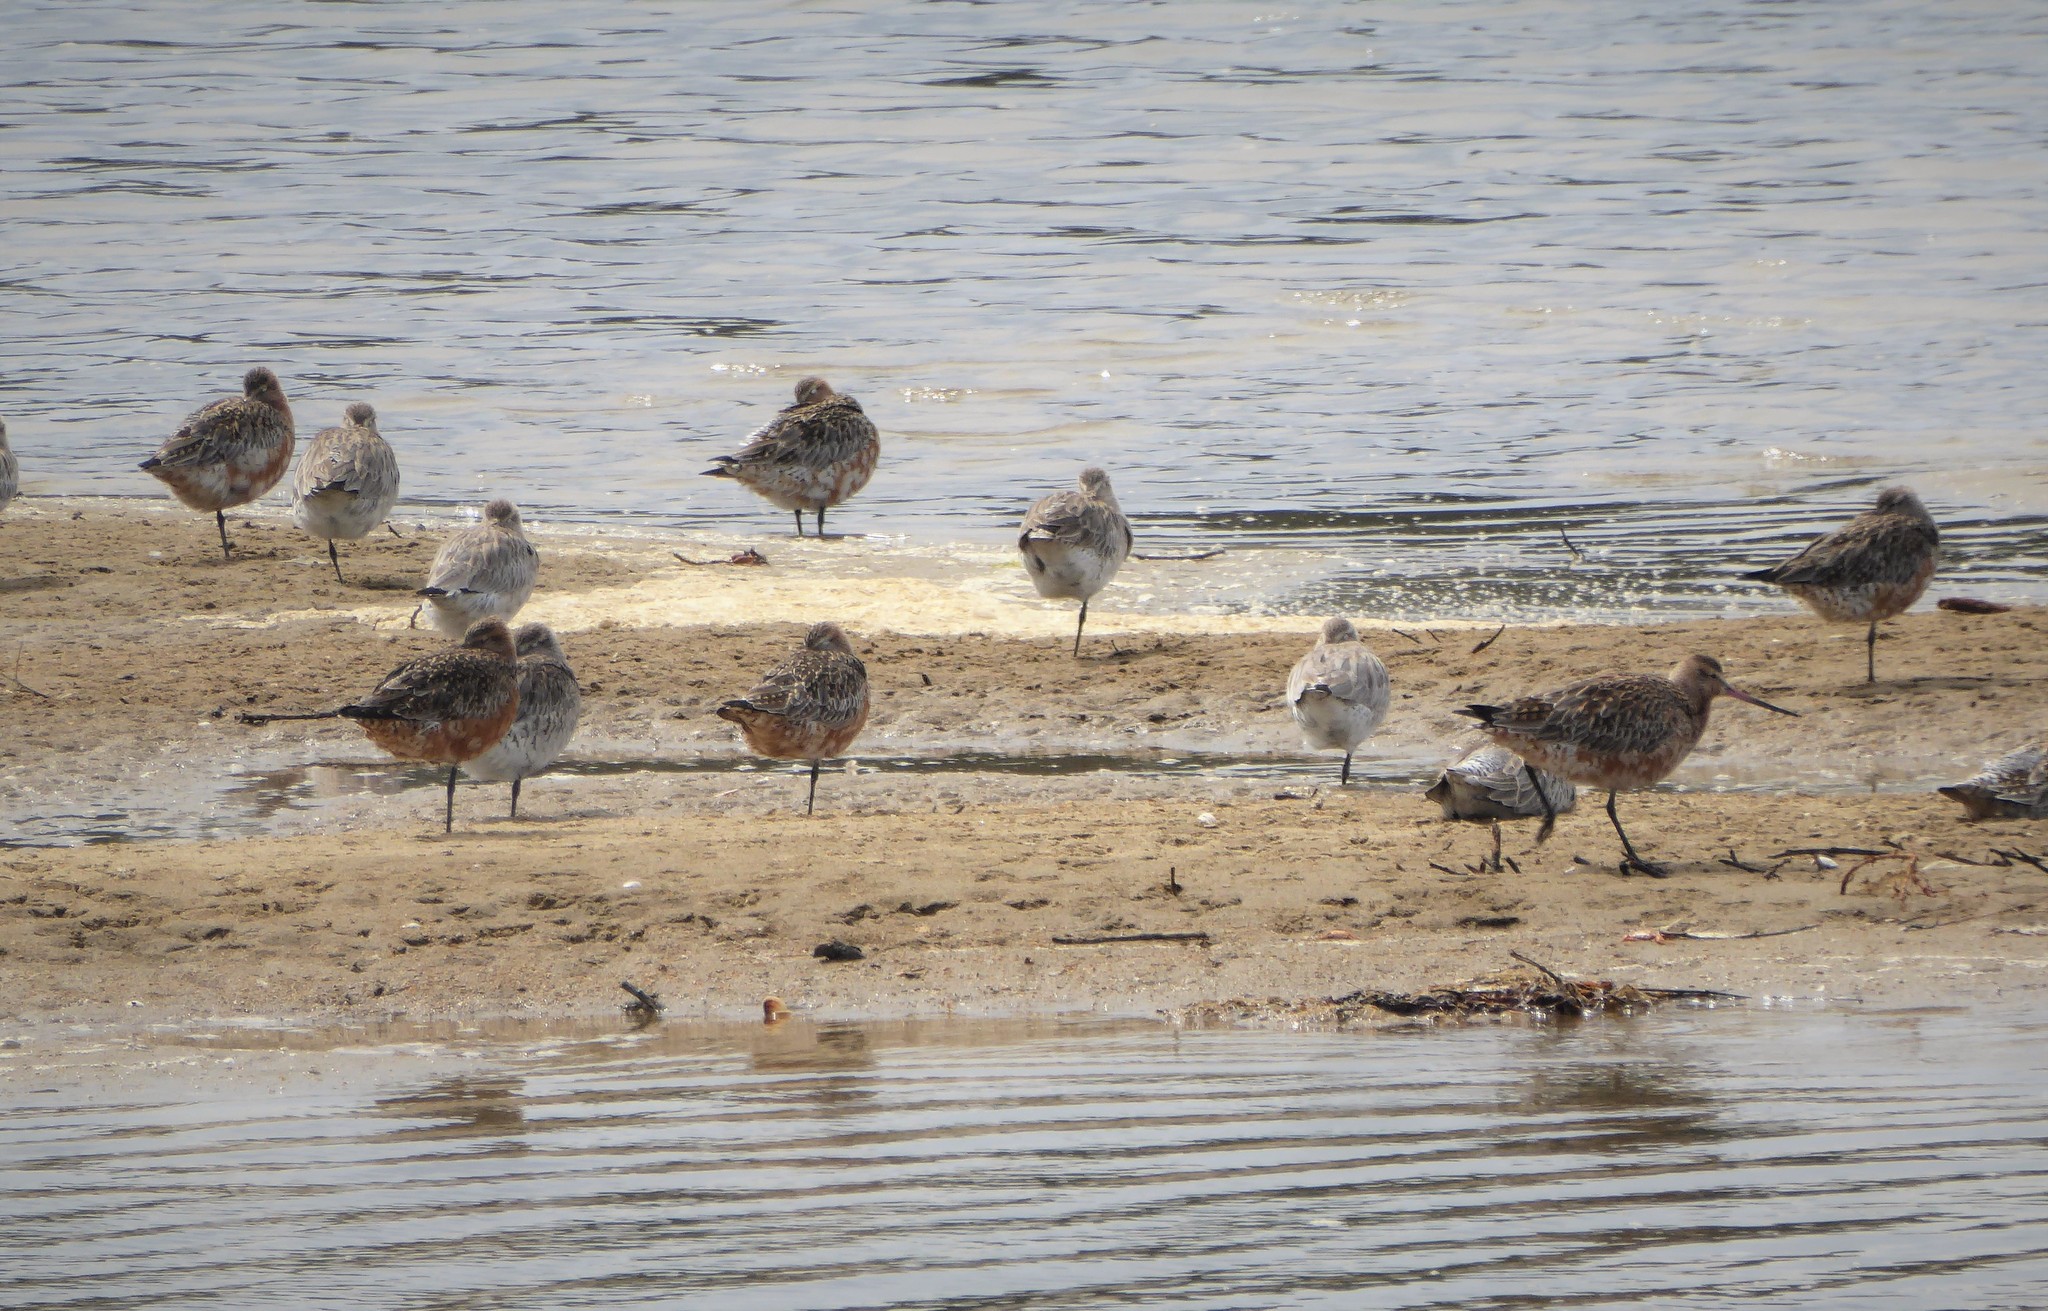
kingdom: Animalia
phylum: Chordata
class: Aves
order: Charadriiformes
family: Scolopacidae
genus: Limosa
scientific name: Limosa lapponica
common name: Bar-tailed godwit
